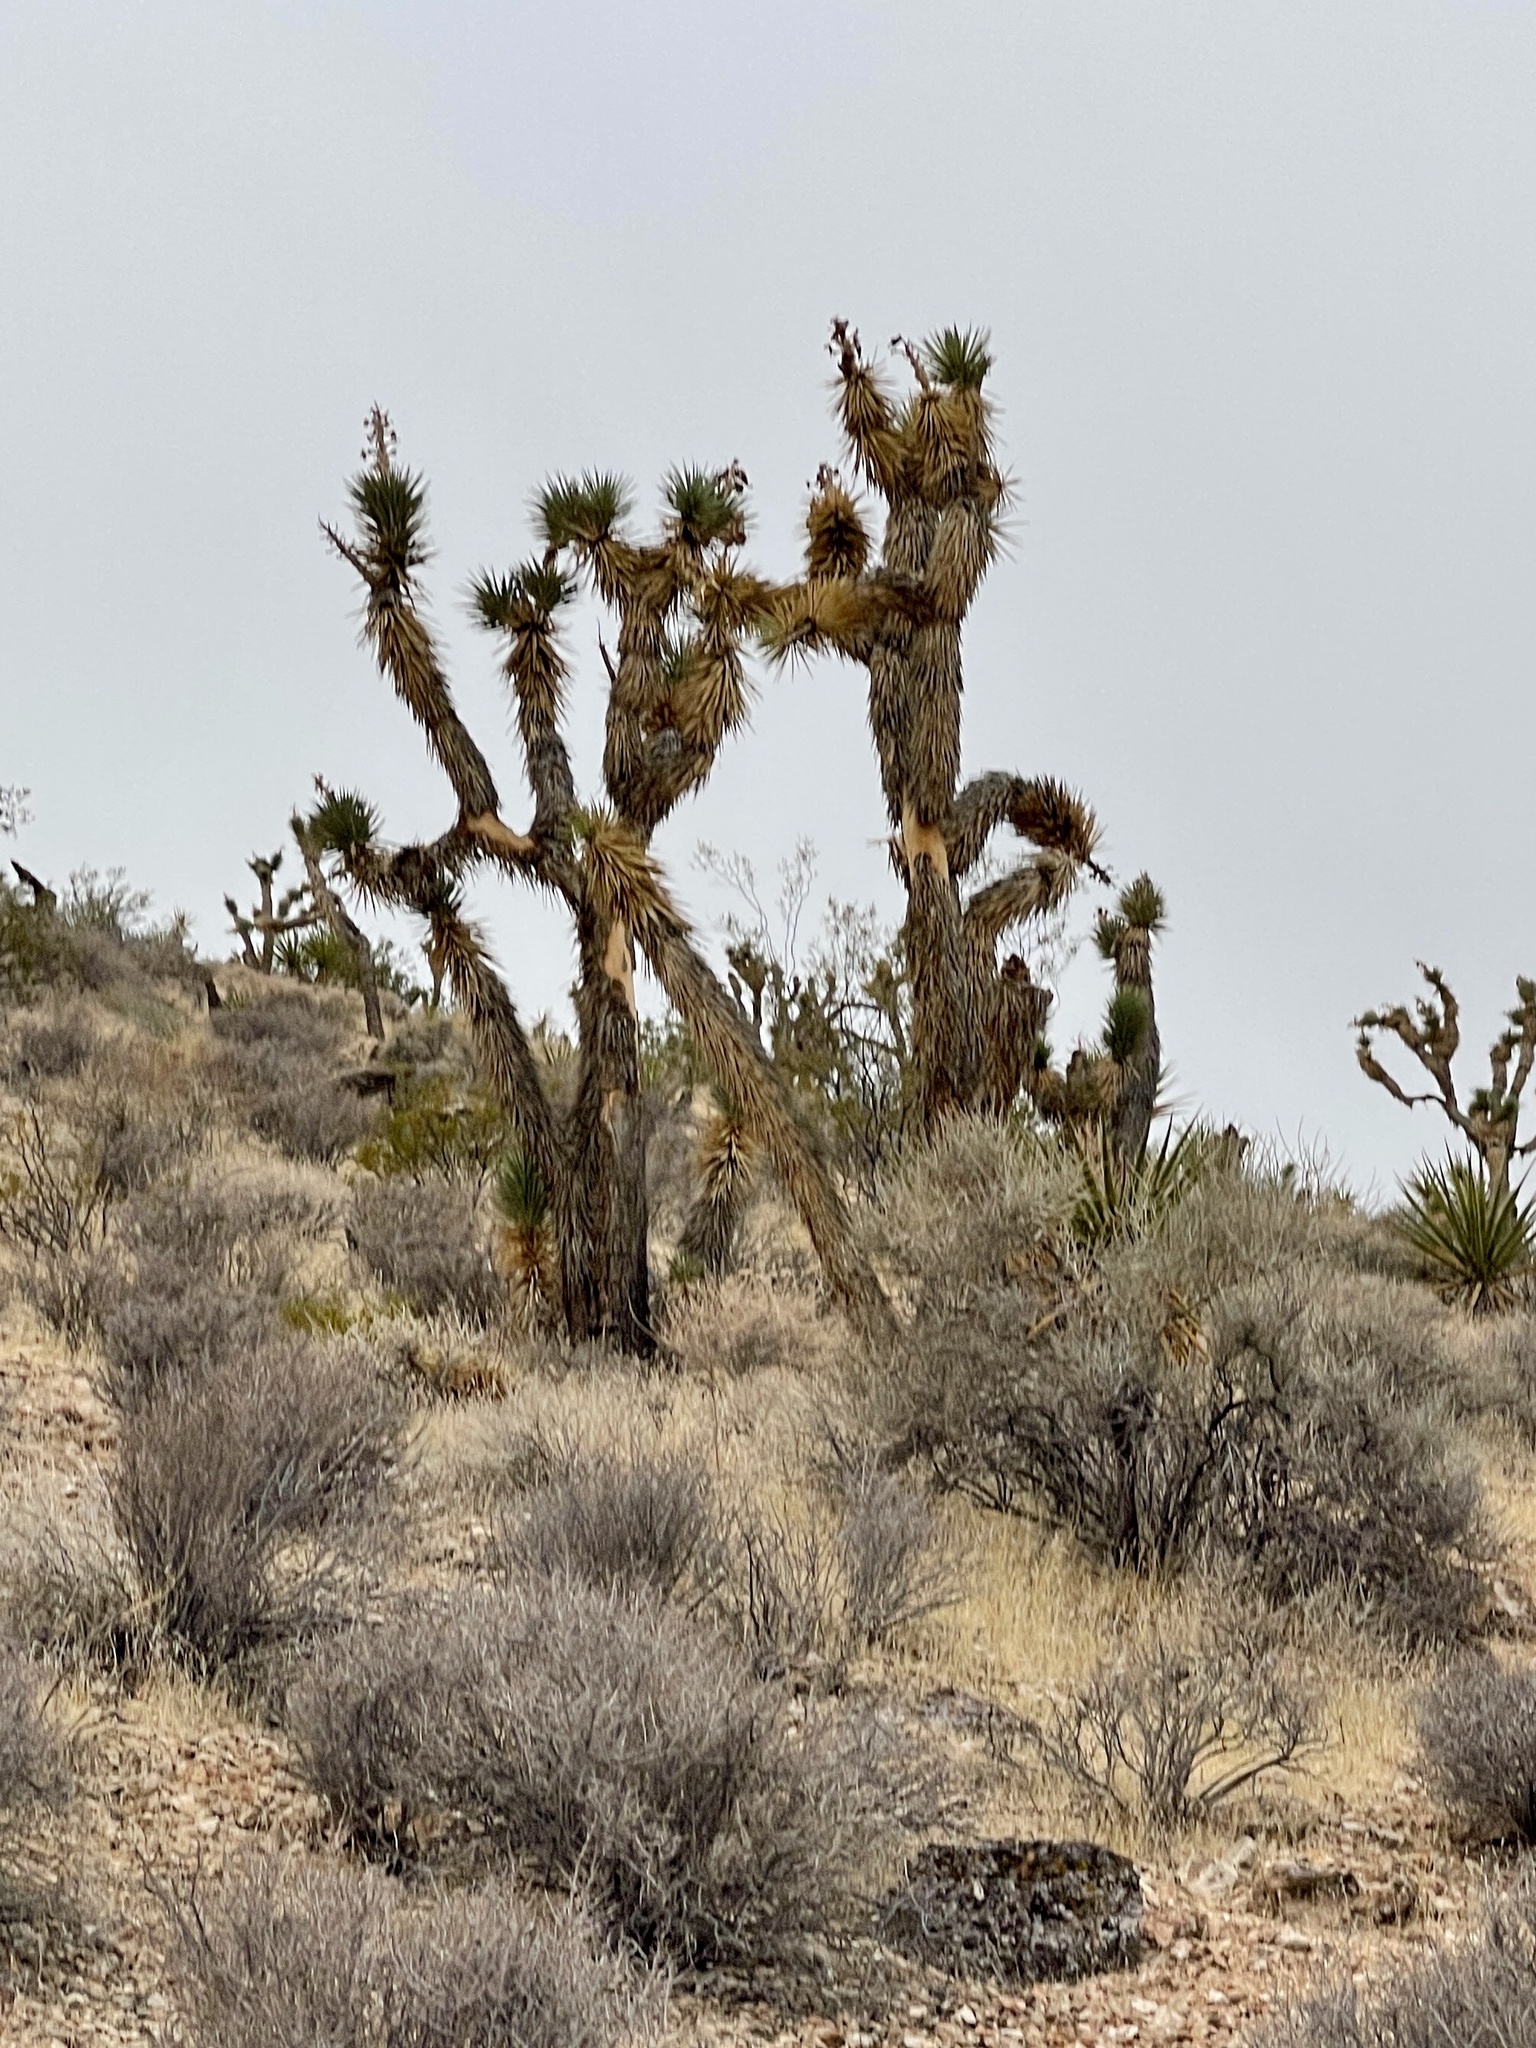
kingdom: Plantae
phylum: Tracheophyta
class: Liliopsida
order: Asparagales
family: Asparagaceae
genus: Yucca
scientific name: Yucca brevifolia
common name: Joshua tree
